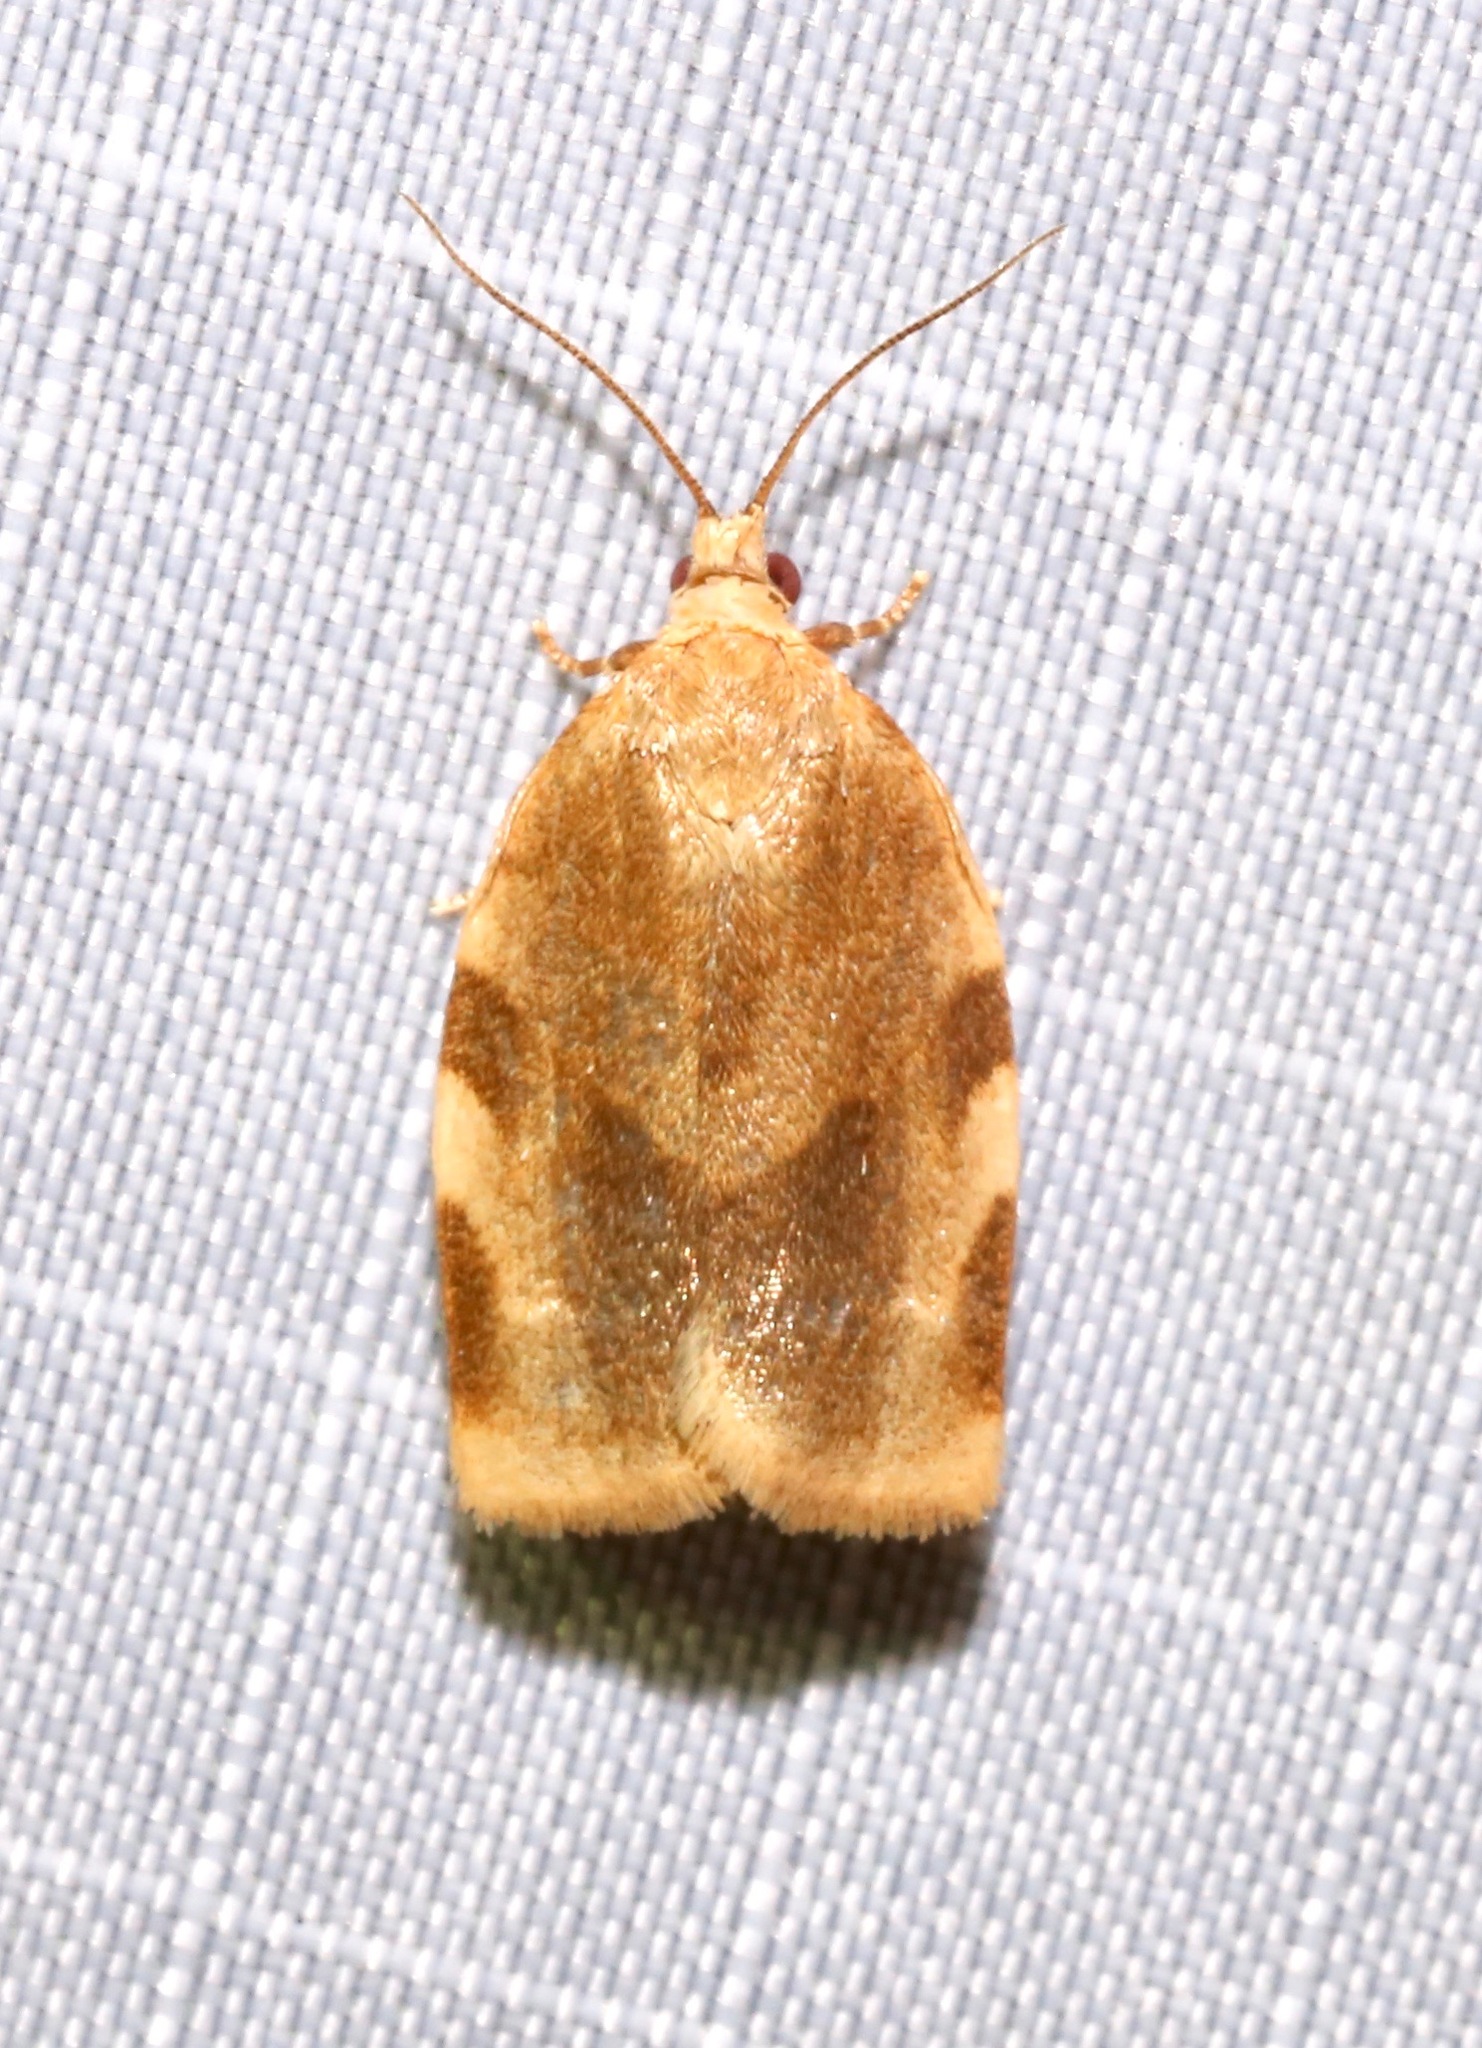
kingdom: Animalia
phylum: Arthropoda
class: Insecta
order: Lepidoptera
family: Tortricidae
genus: Choristoneura
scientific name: Choristoneura fractivittana
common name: Broken-banded leafroller moth
